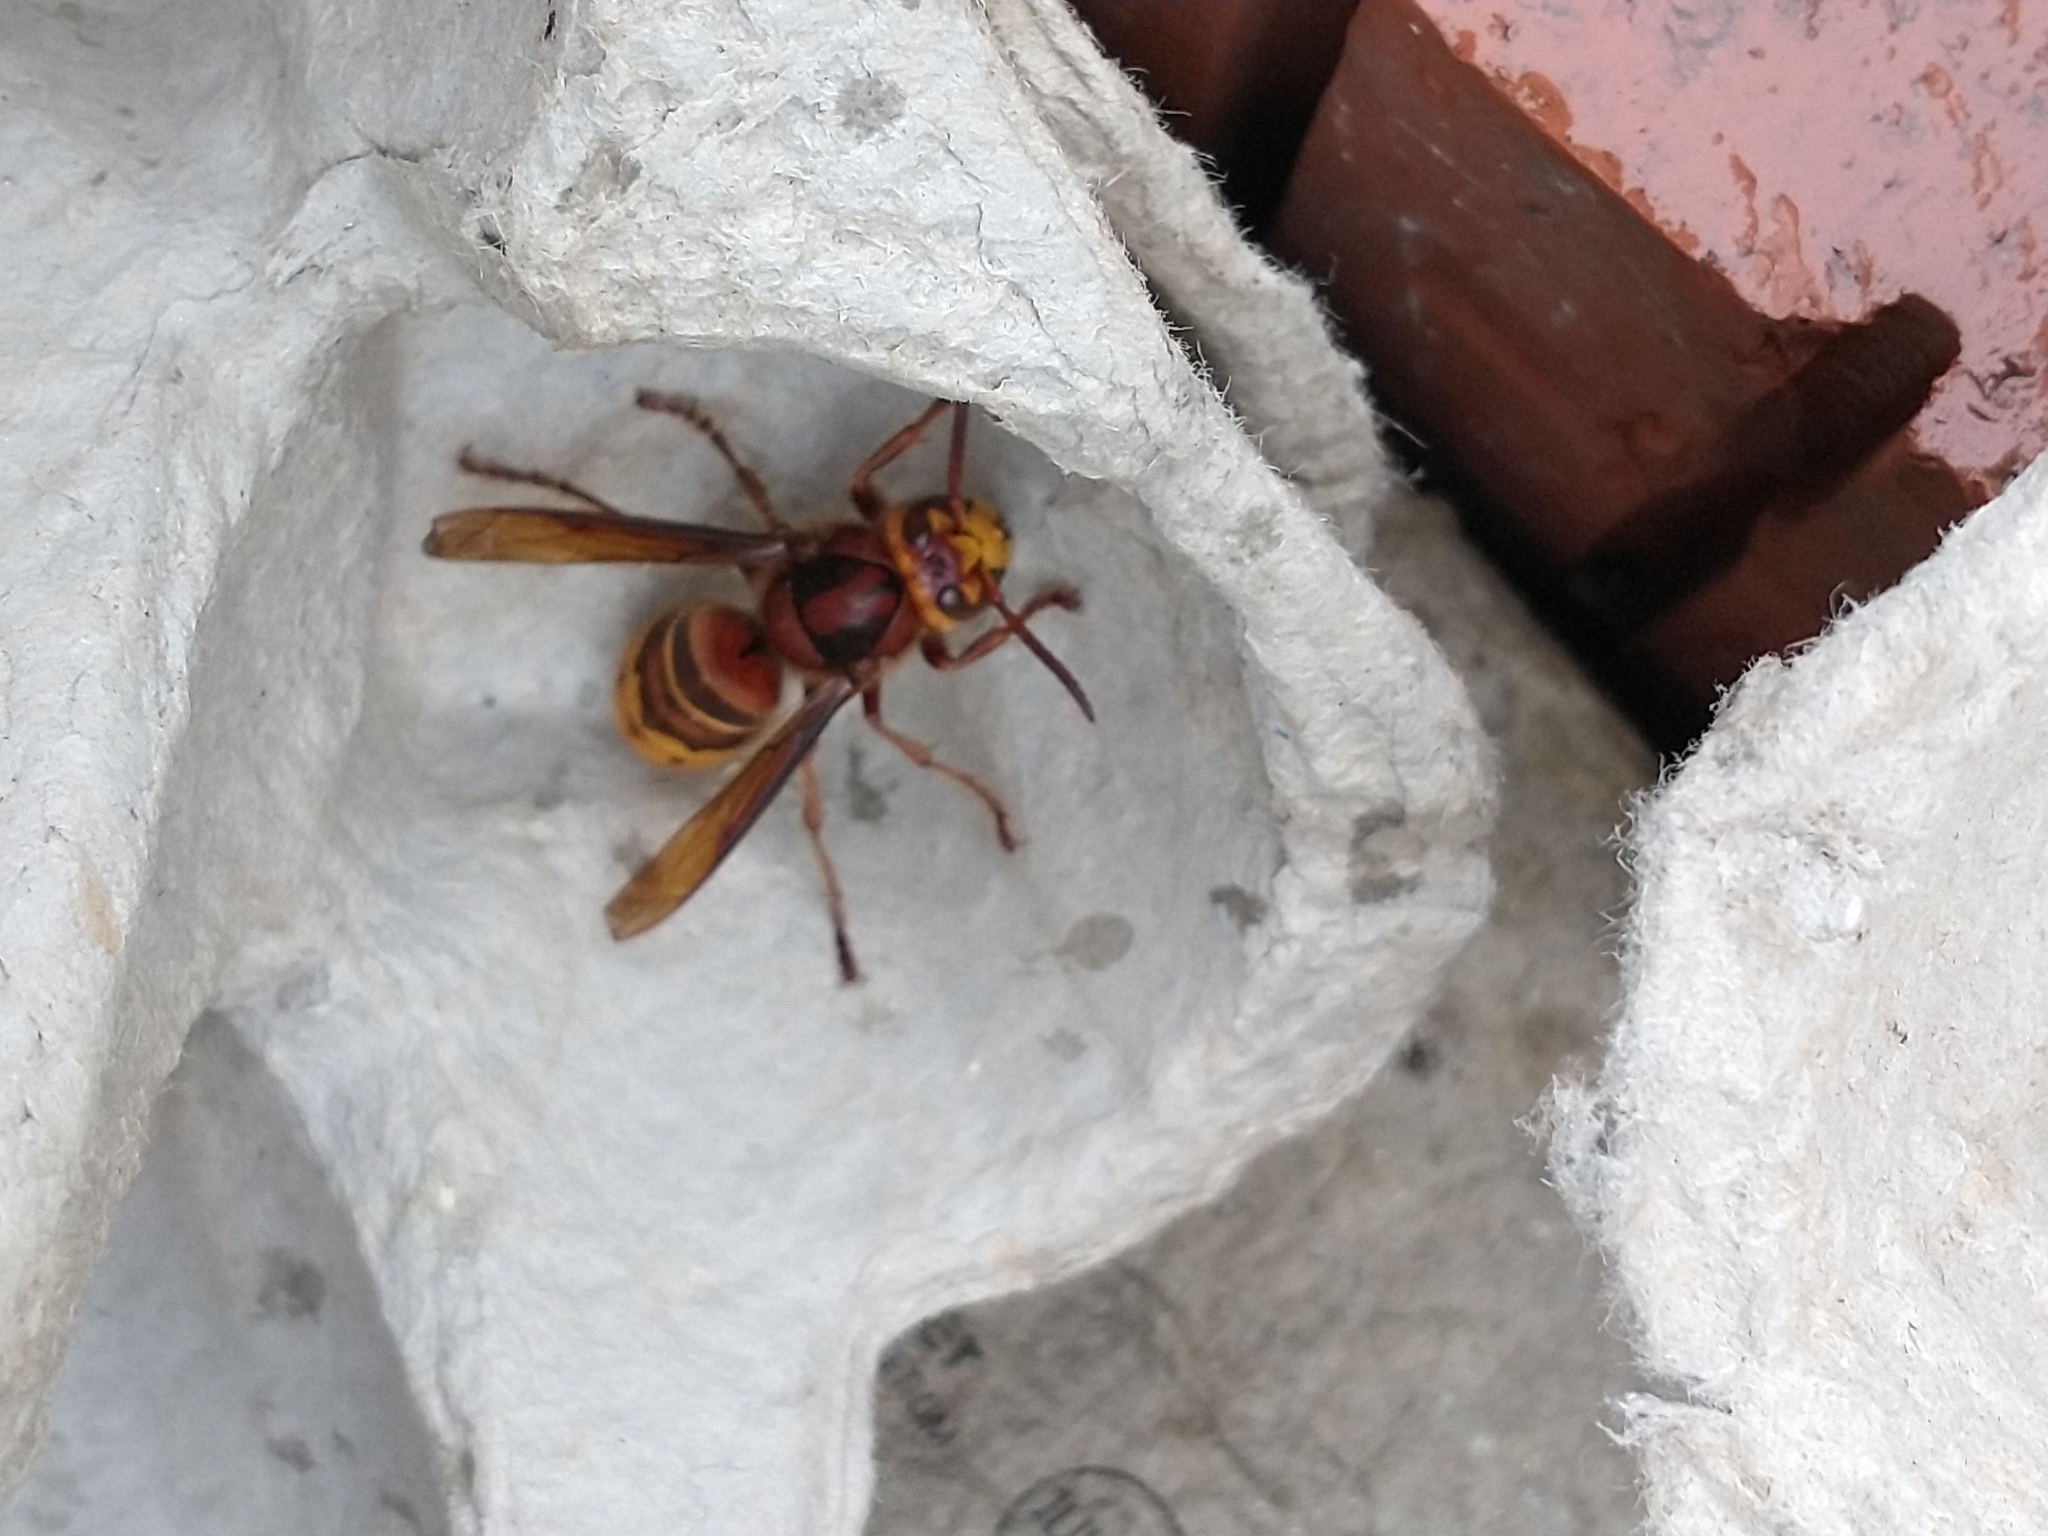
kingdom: Animalia
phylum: Arthropoda
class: Insecta
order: Hymenoptera
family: Vespidae
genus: Vespa
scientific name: Vespa crabro
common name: Hornet
